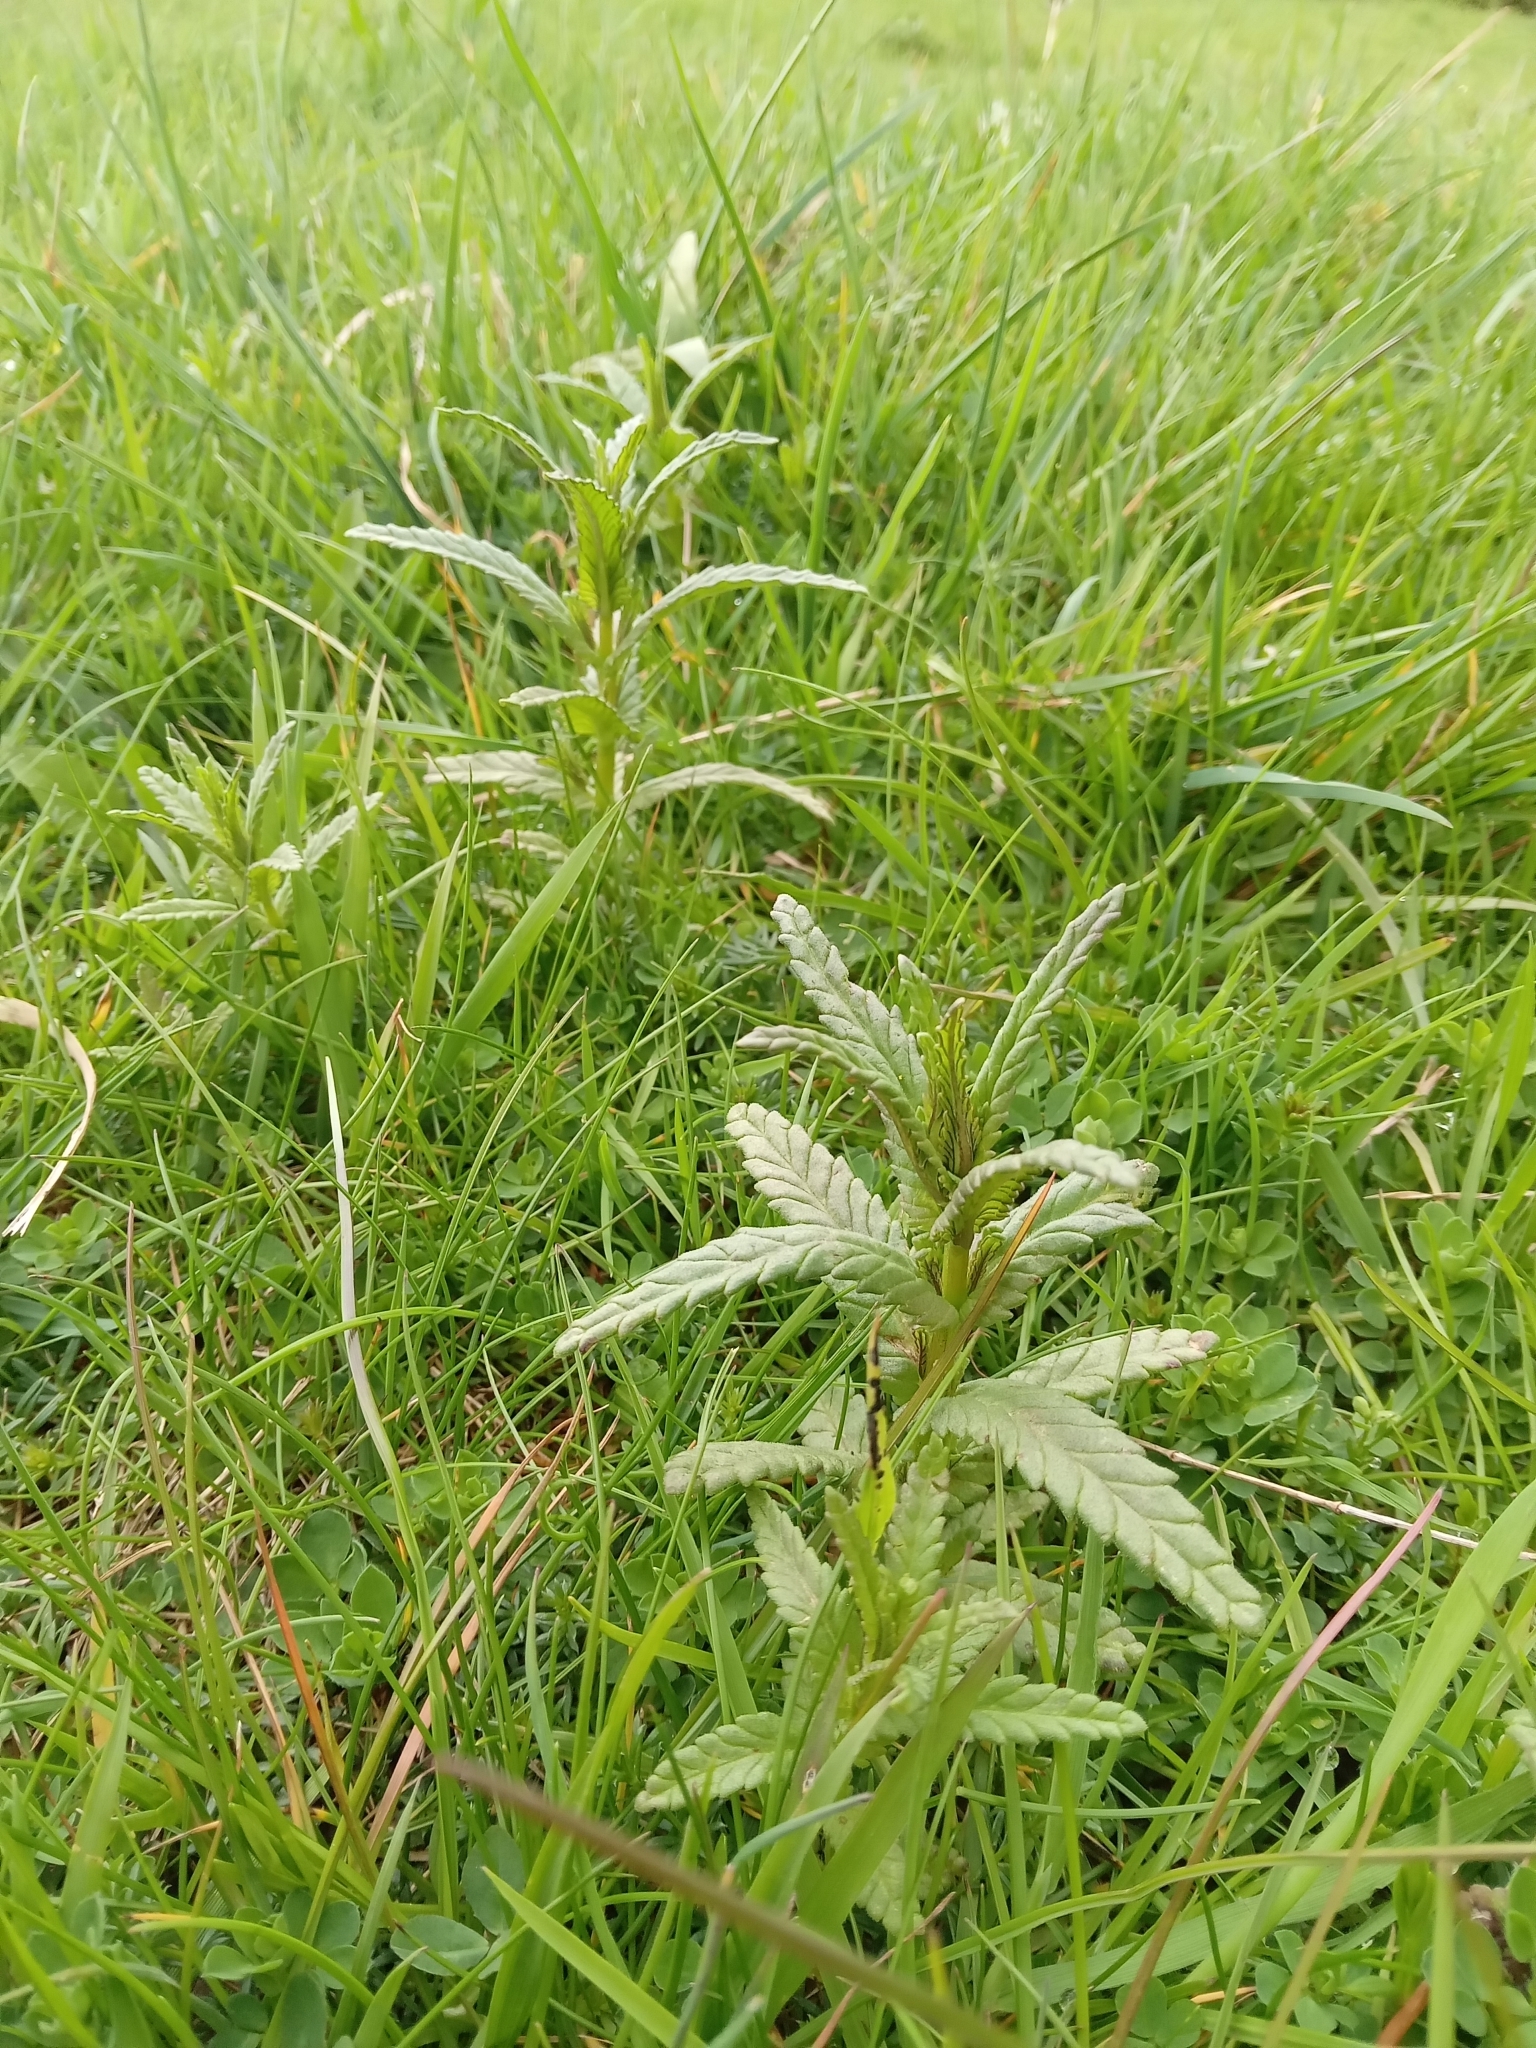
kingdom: Plantae
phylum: Tracheophyta
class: Magnoliopsida
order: Lamiales
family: Orobanchaceae
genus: Rhinanthus
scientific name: Rhinanthus minor
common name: Yellow-rattle
